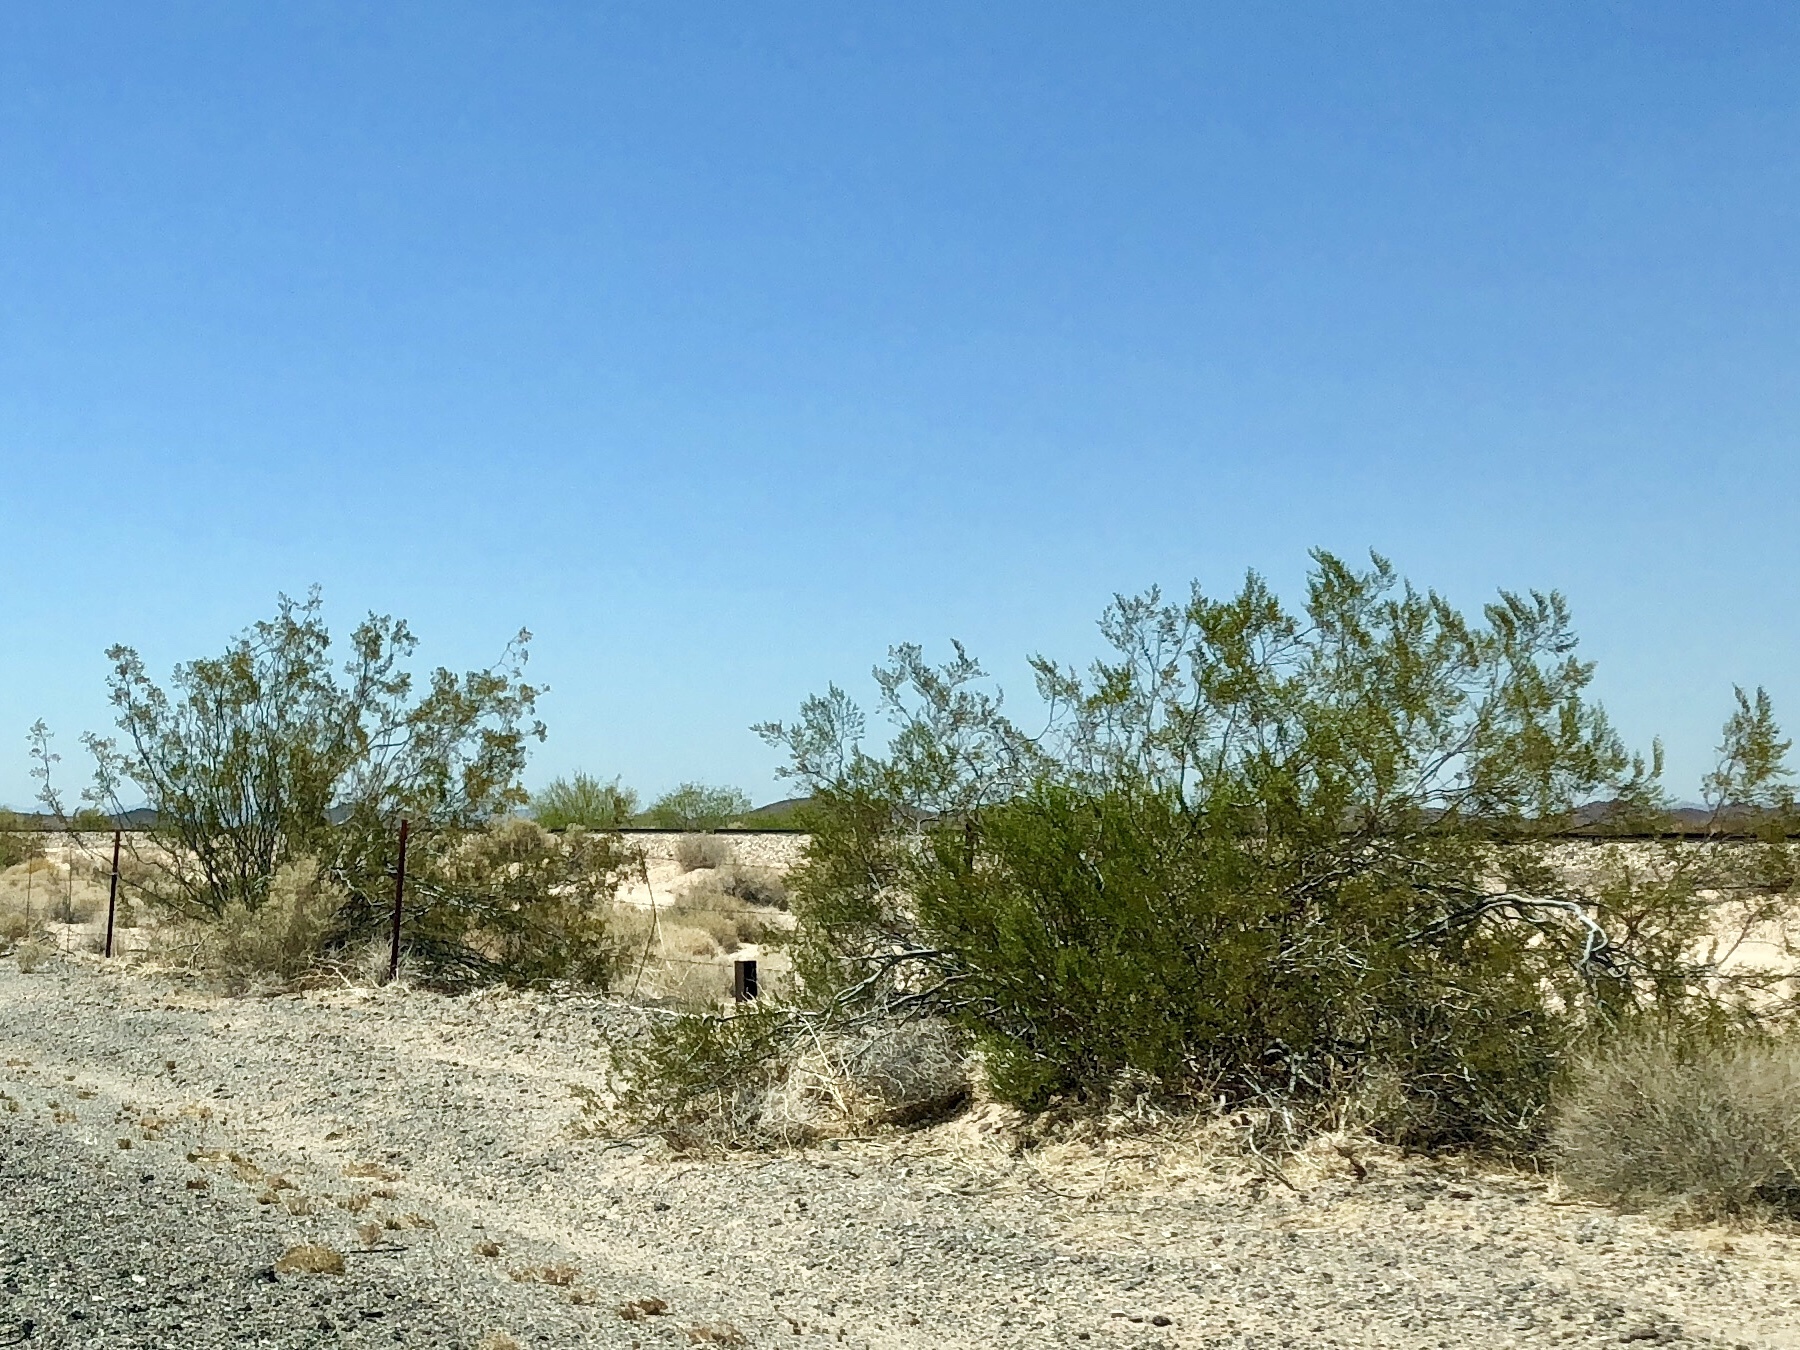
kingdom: Plantae
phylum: Tracheophyta
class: Magnoliopsida
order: Zygophyllales
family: Zygophyllaceae
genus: Larrea
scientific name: Larrea tridentata
